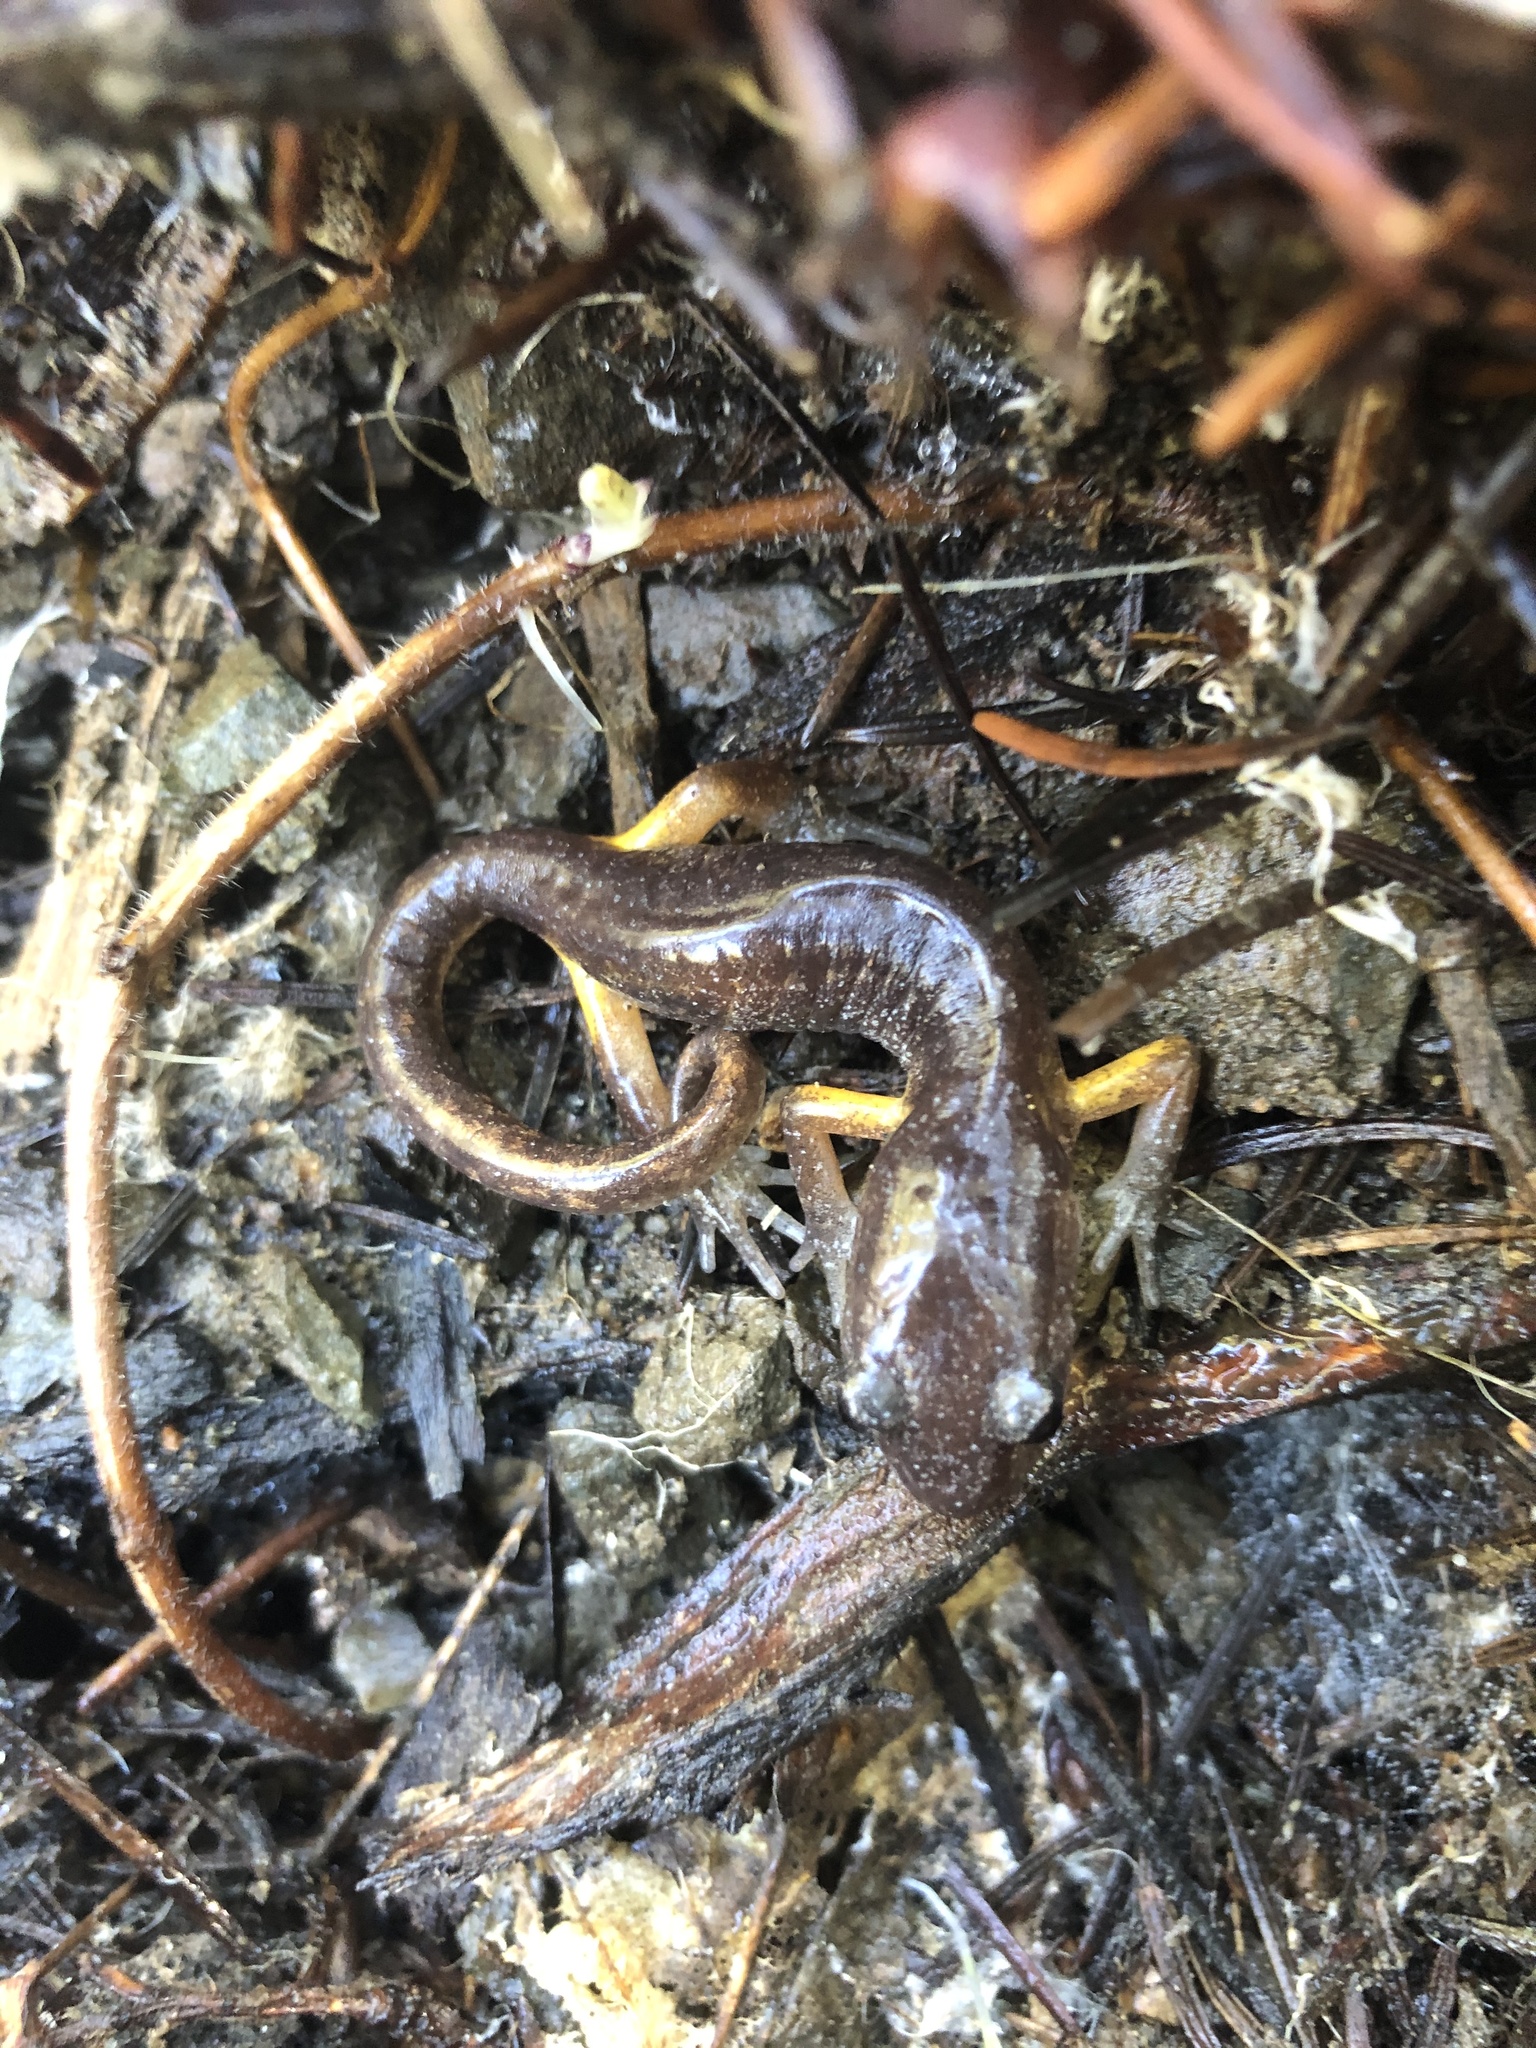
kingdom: Animalia
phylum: Chordata
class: Amphibia
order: Caudata
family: Plethodontidae
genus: Ensatina
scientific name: Ensatina eschscholtzii
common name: Ensatina
